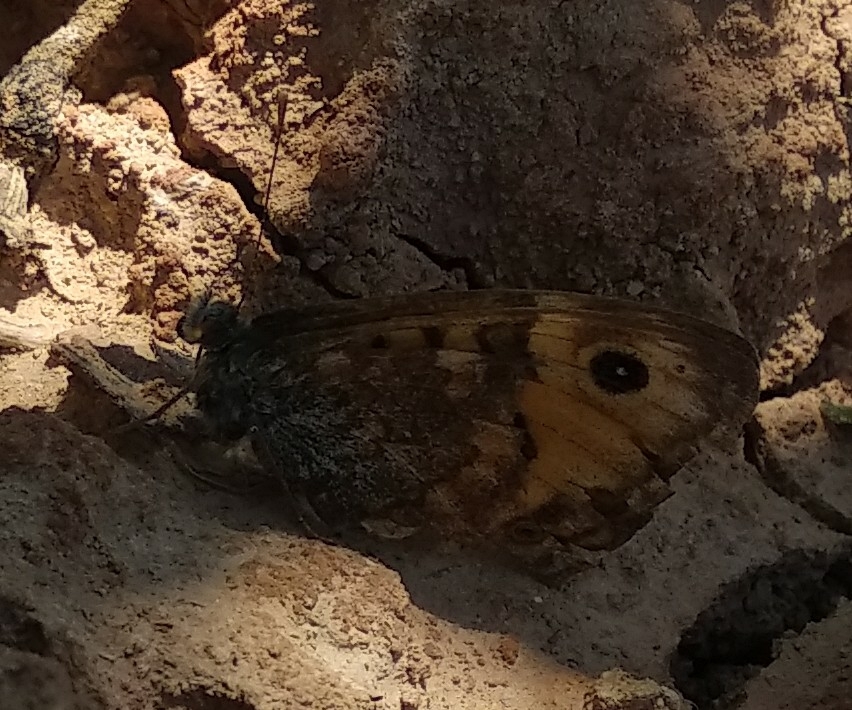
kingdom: Animalia
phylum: Arthropoda
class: Insecta
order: Lepidoptera
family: Nymphalidae
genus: Pararge
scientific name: Pararge Lasiommata megera
